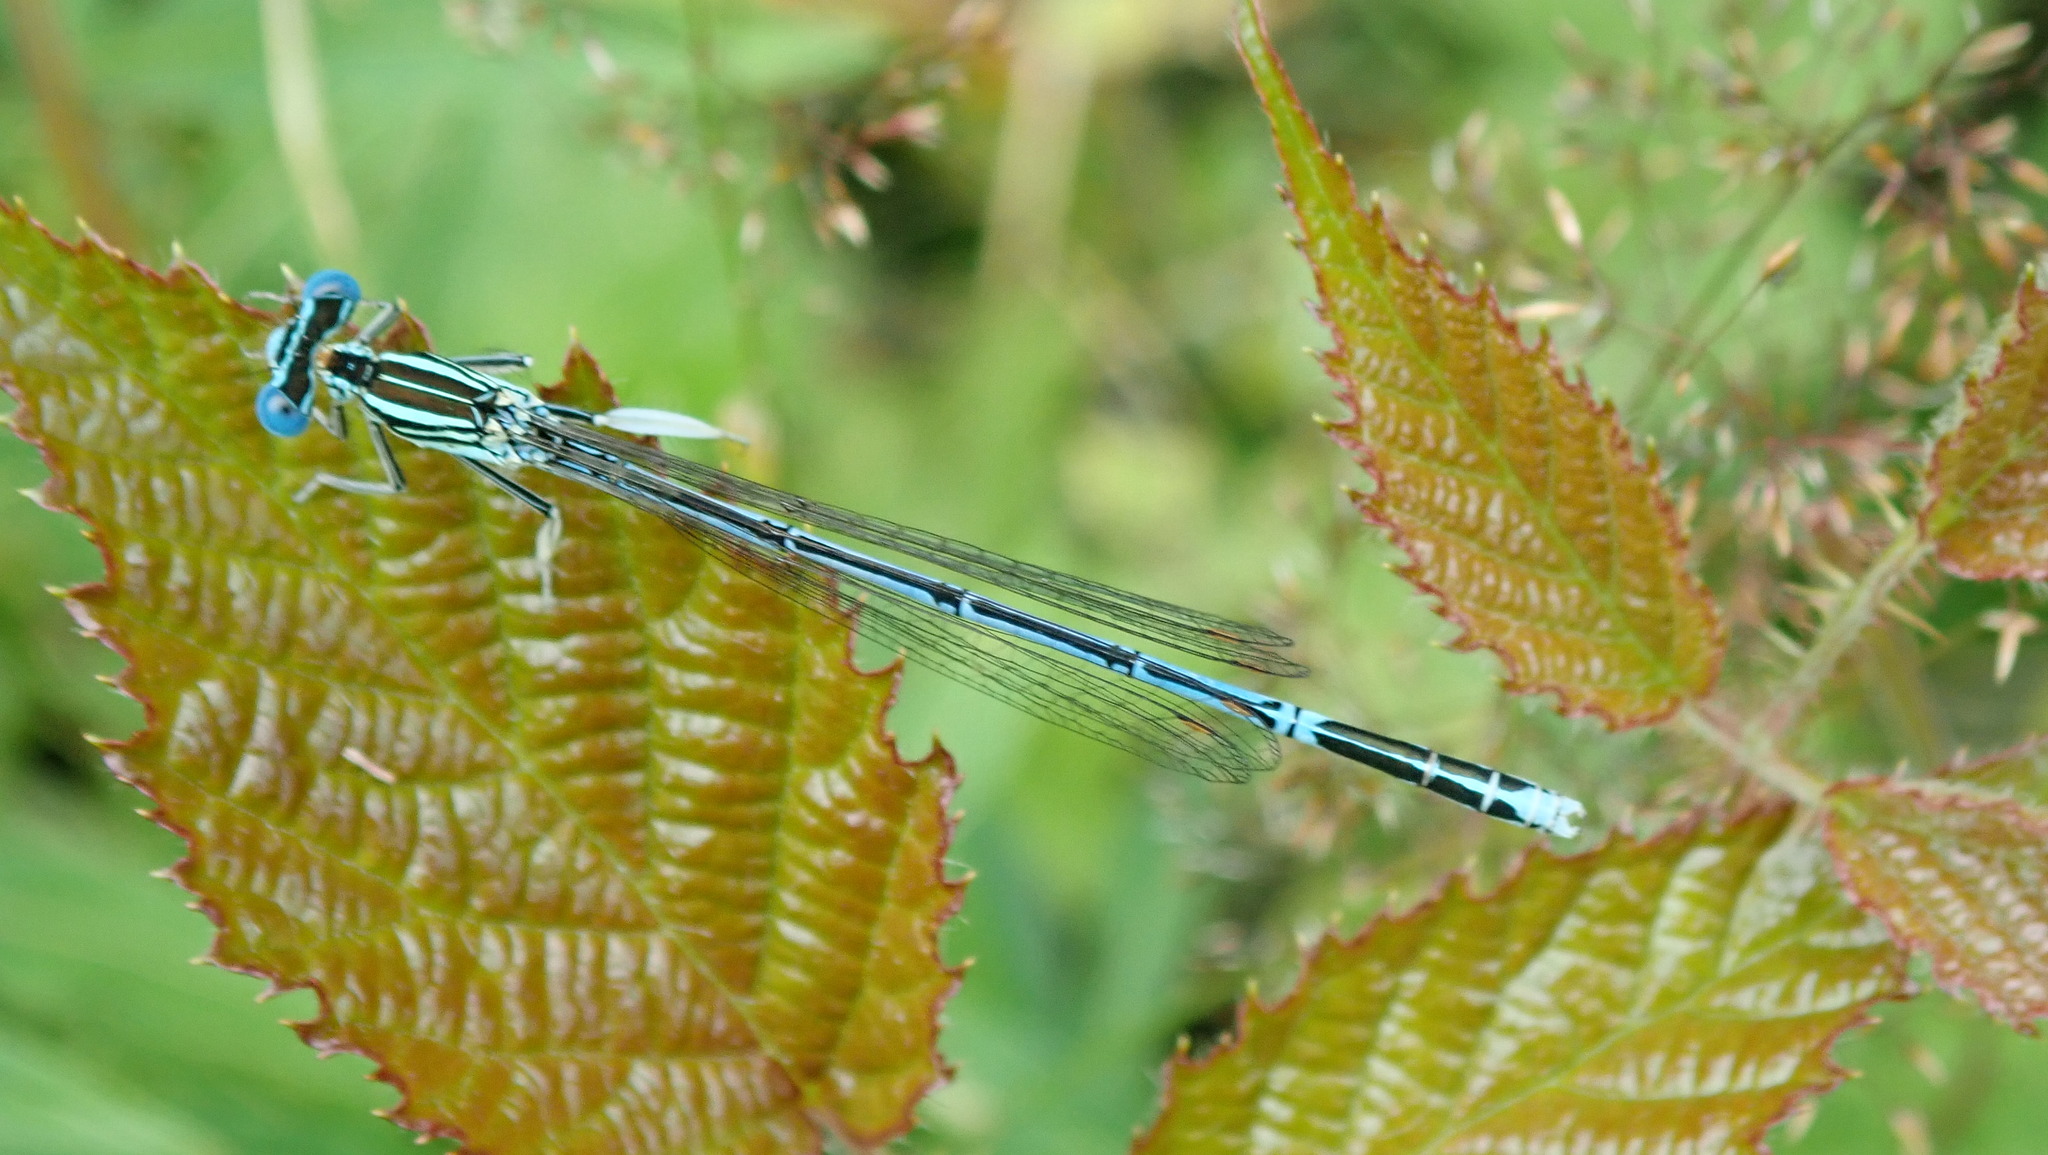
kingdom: Animalia
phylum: Arthropoda
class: Insecta
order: Odonata
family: Platycnemididae
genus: Platycnemis
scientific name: Platycnemis pennipes
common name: White-legged damselfly
